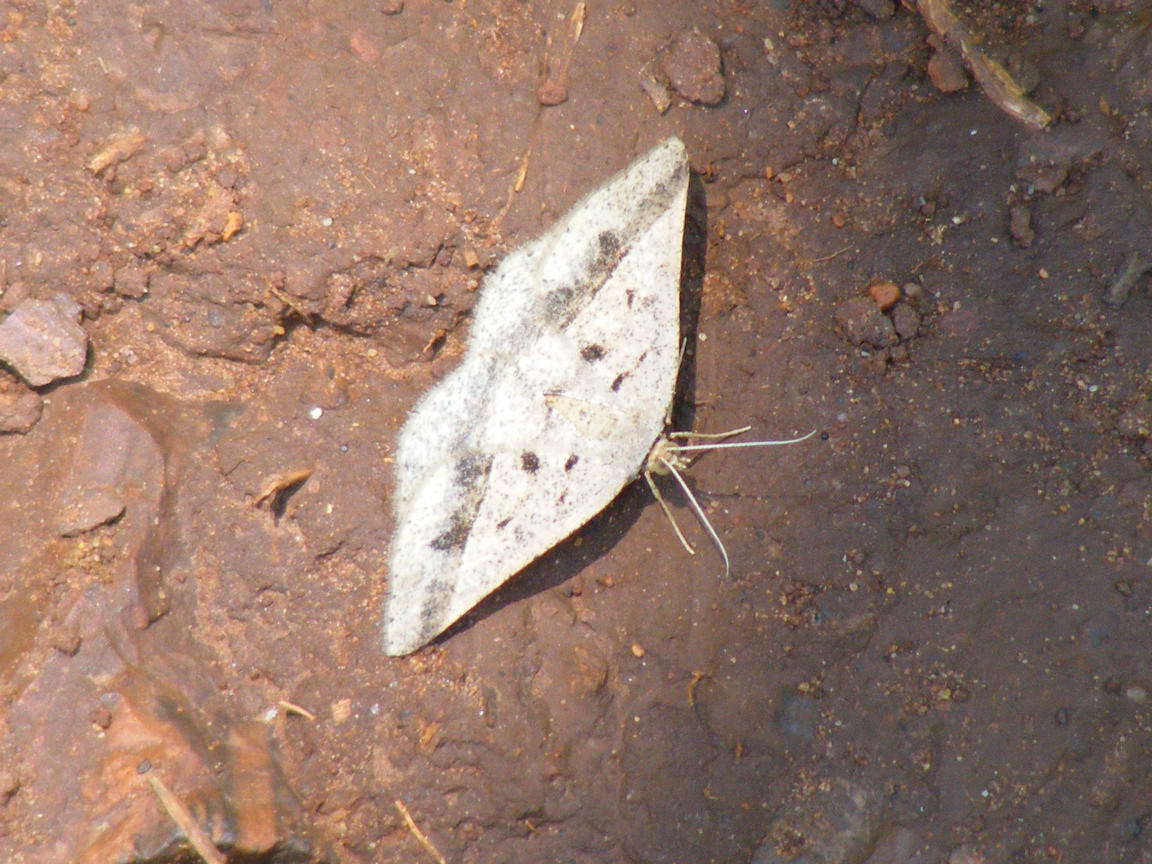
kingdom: Animalia
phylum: Arthropoda
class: Insecta
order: Lepidoptera
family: Geometridae
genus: Chiasmia
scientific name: Chiasmia rectilinea
